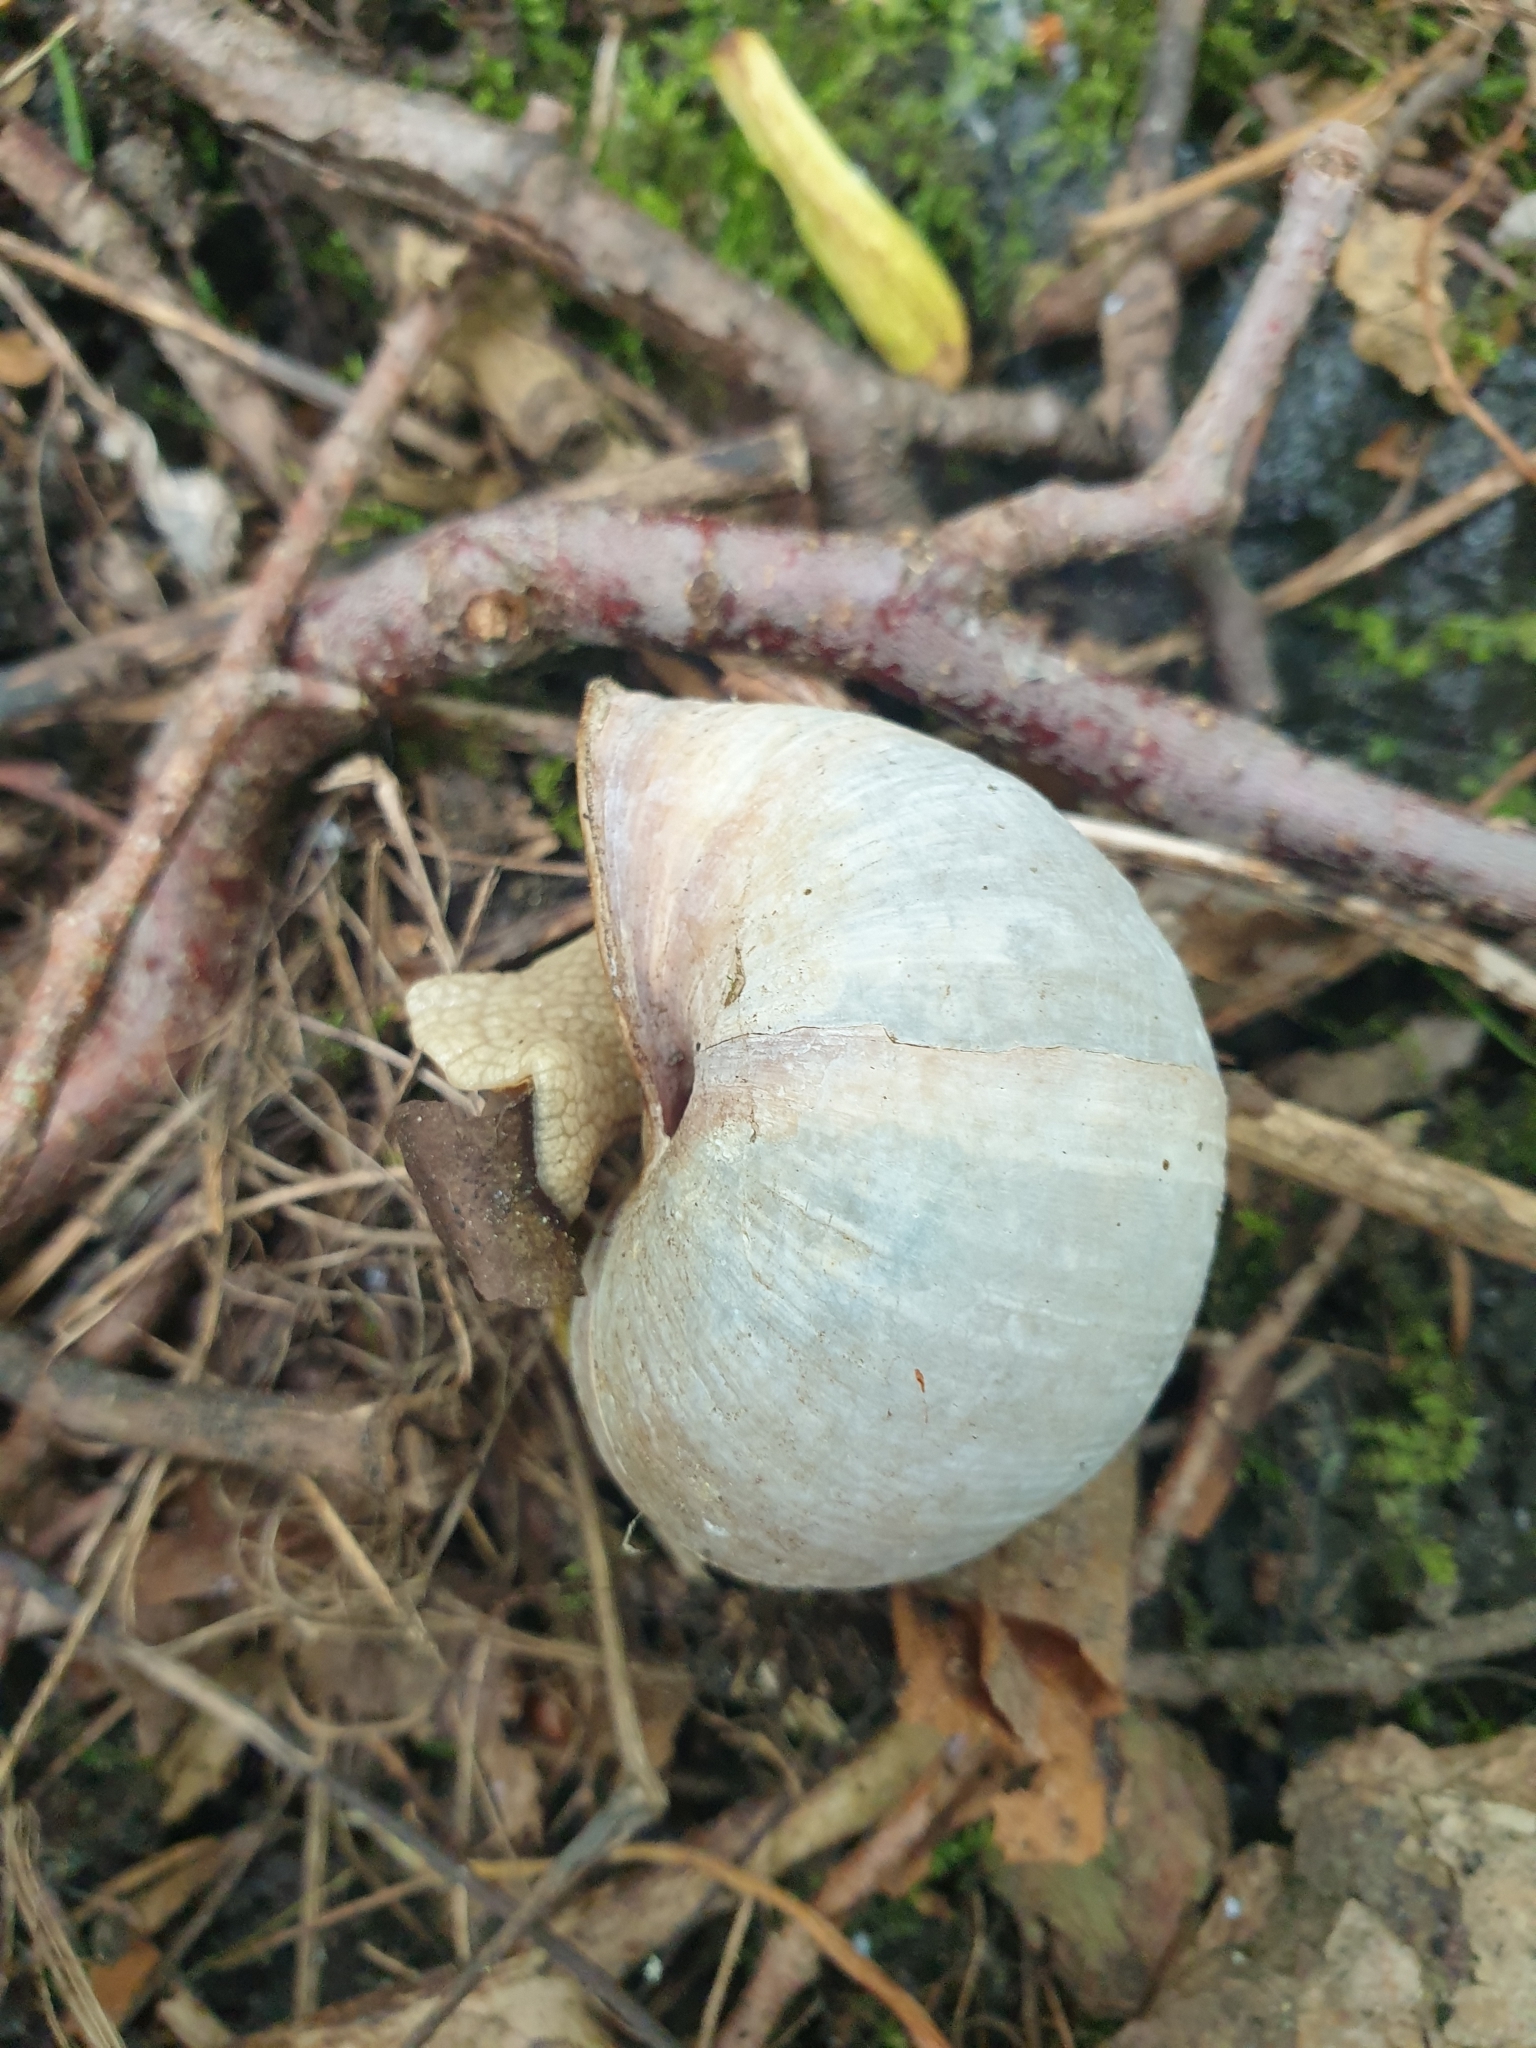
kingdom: Animalia
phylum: Mollusca
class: Gastropoda
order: Stylommatophora
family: Helicidae
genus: Helix
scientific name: Helix pomatia
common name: Roman snail
